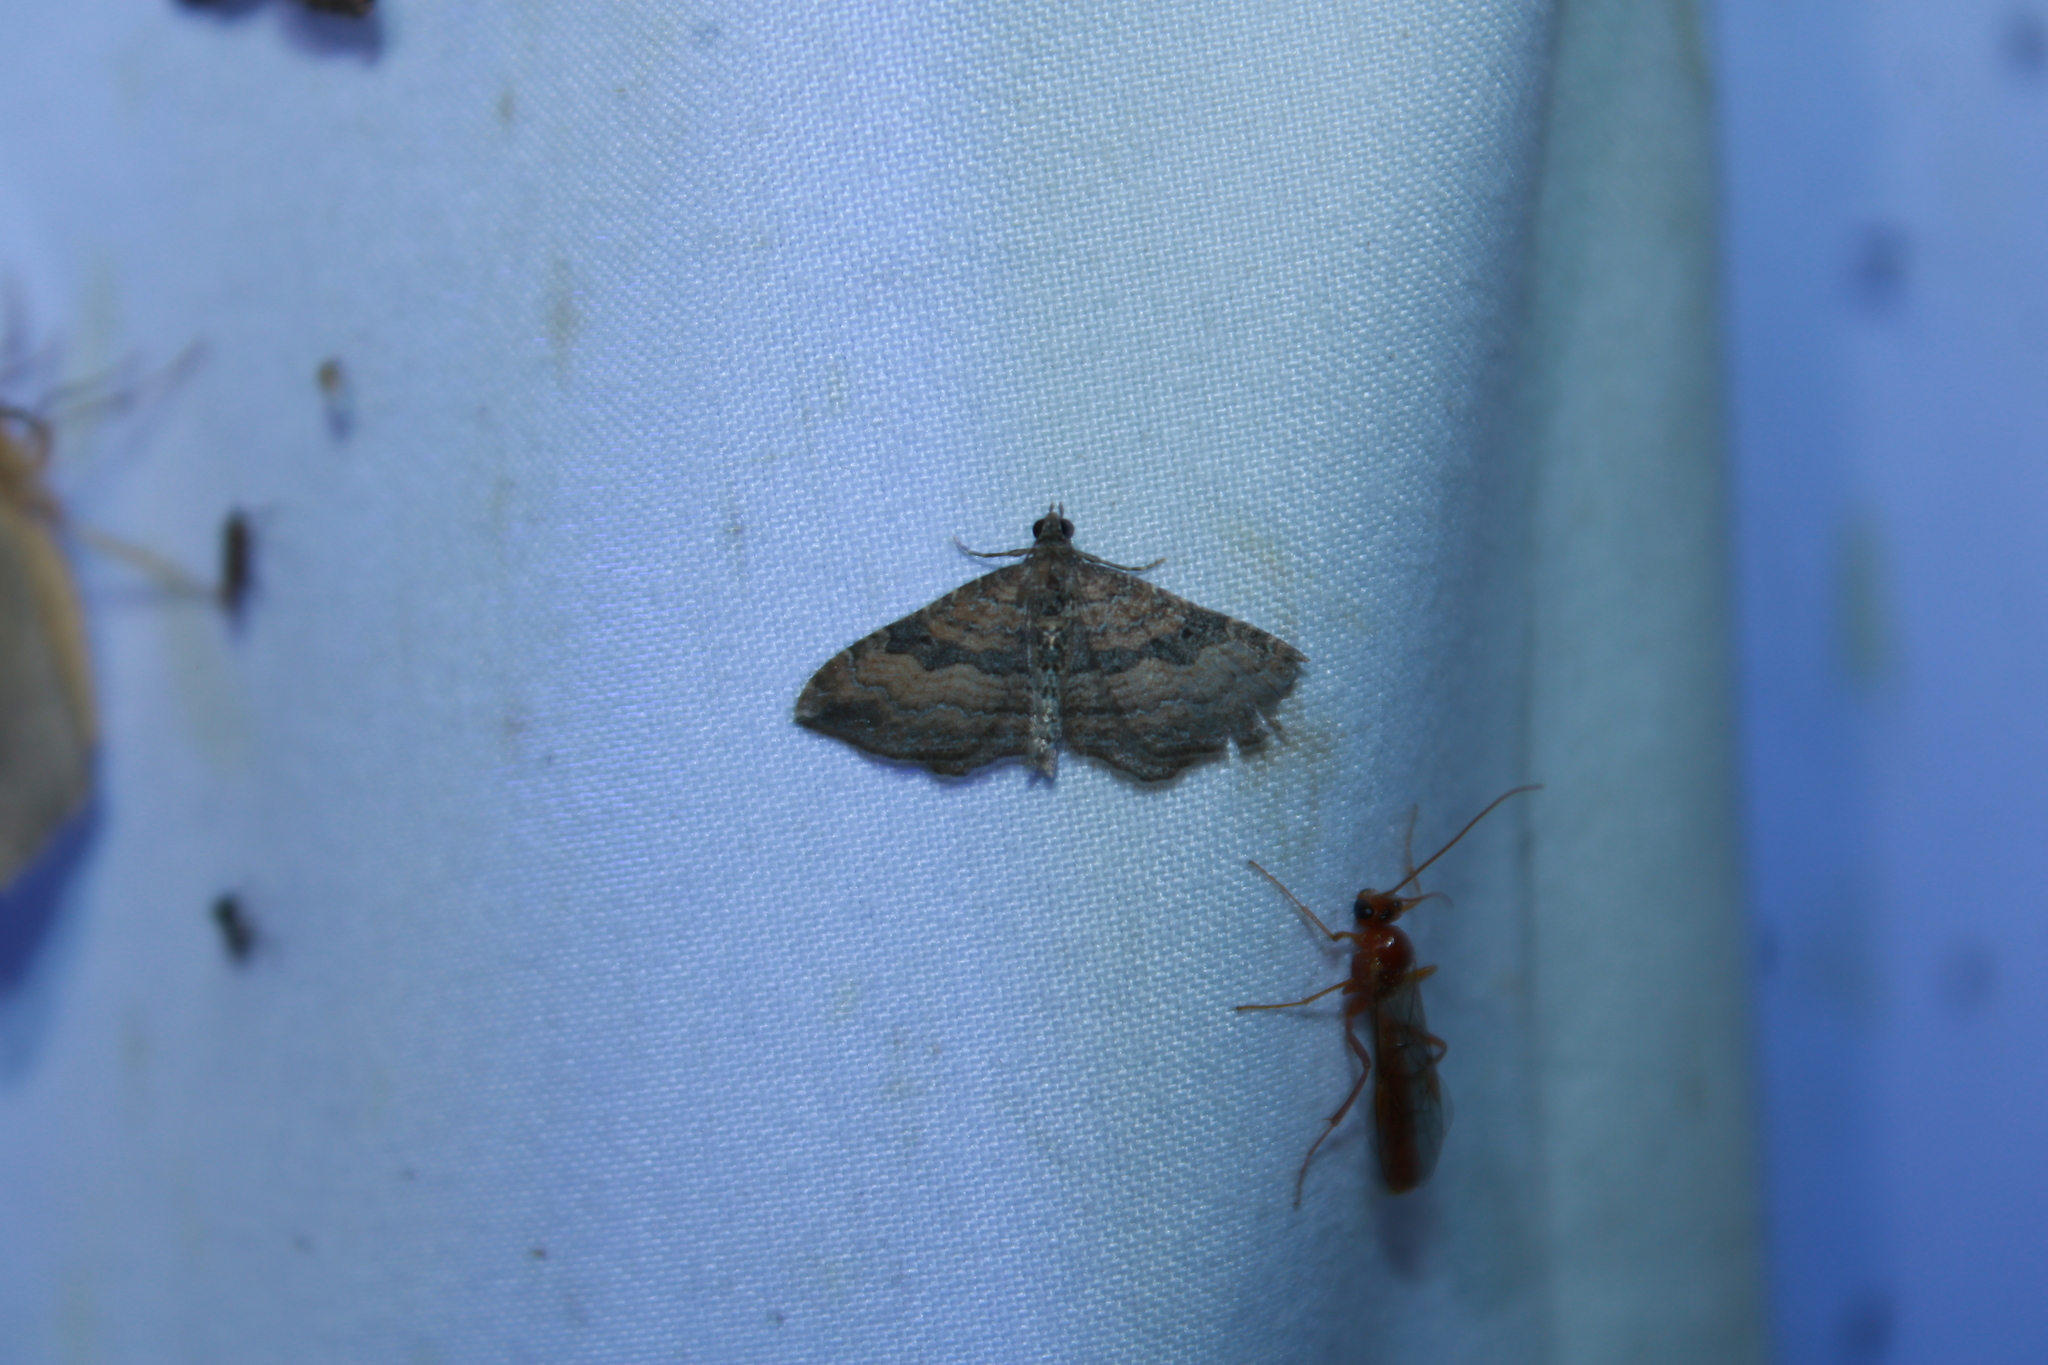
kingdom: Animalia
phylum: Arthropoda
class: Insecta
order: Lepidoptera
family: Geometridae
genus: Orthonama
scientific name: Orthonama obstipata
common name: The gem
